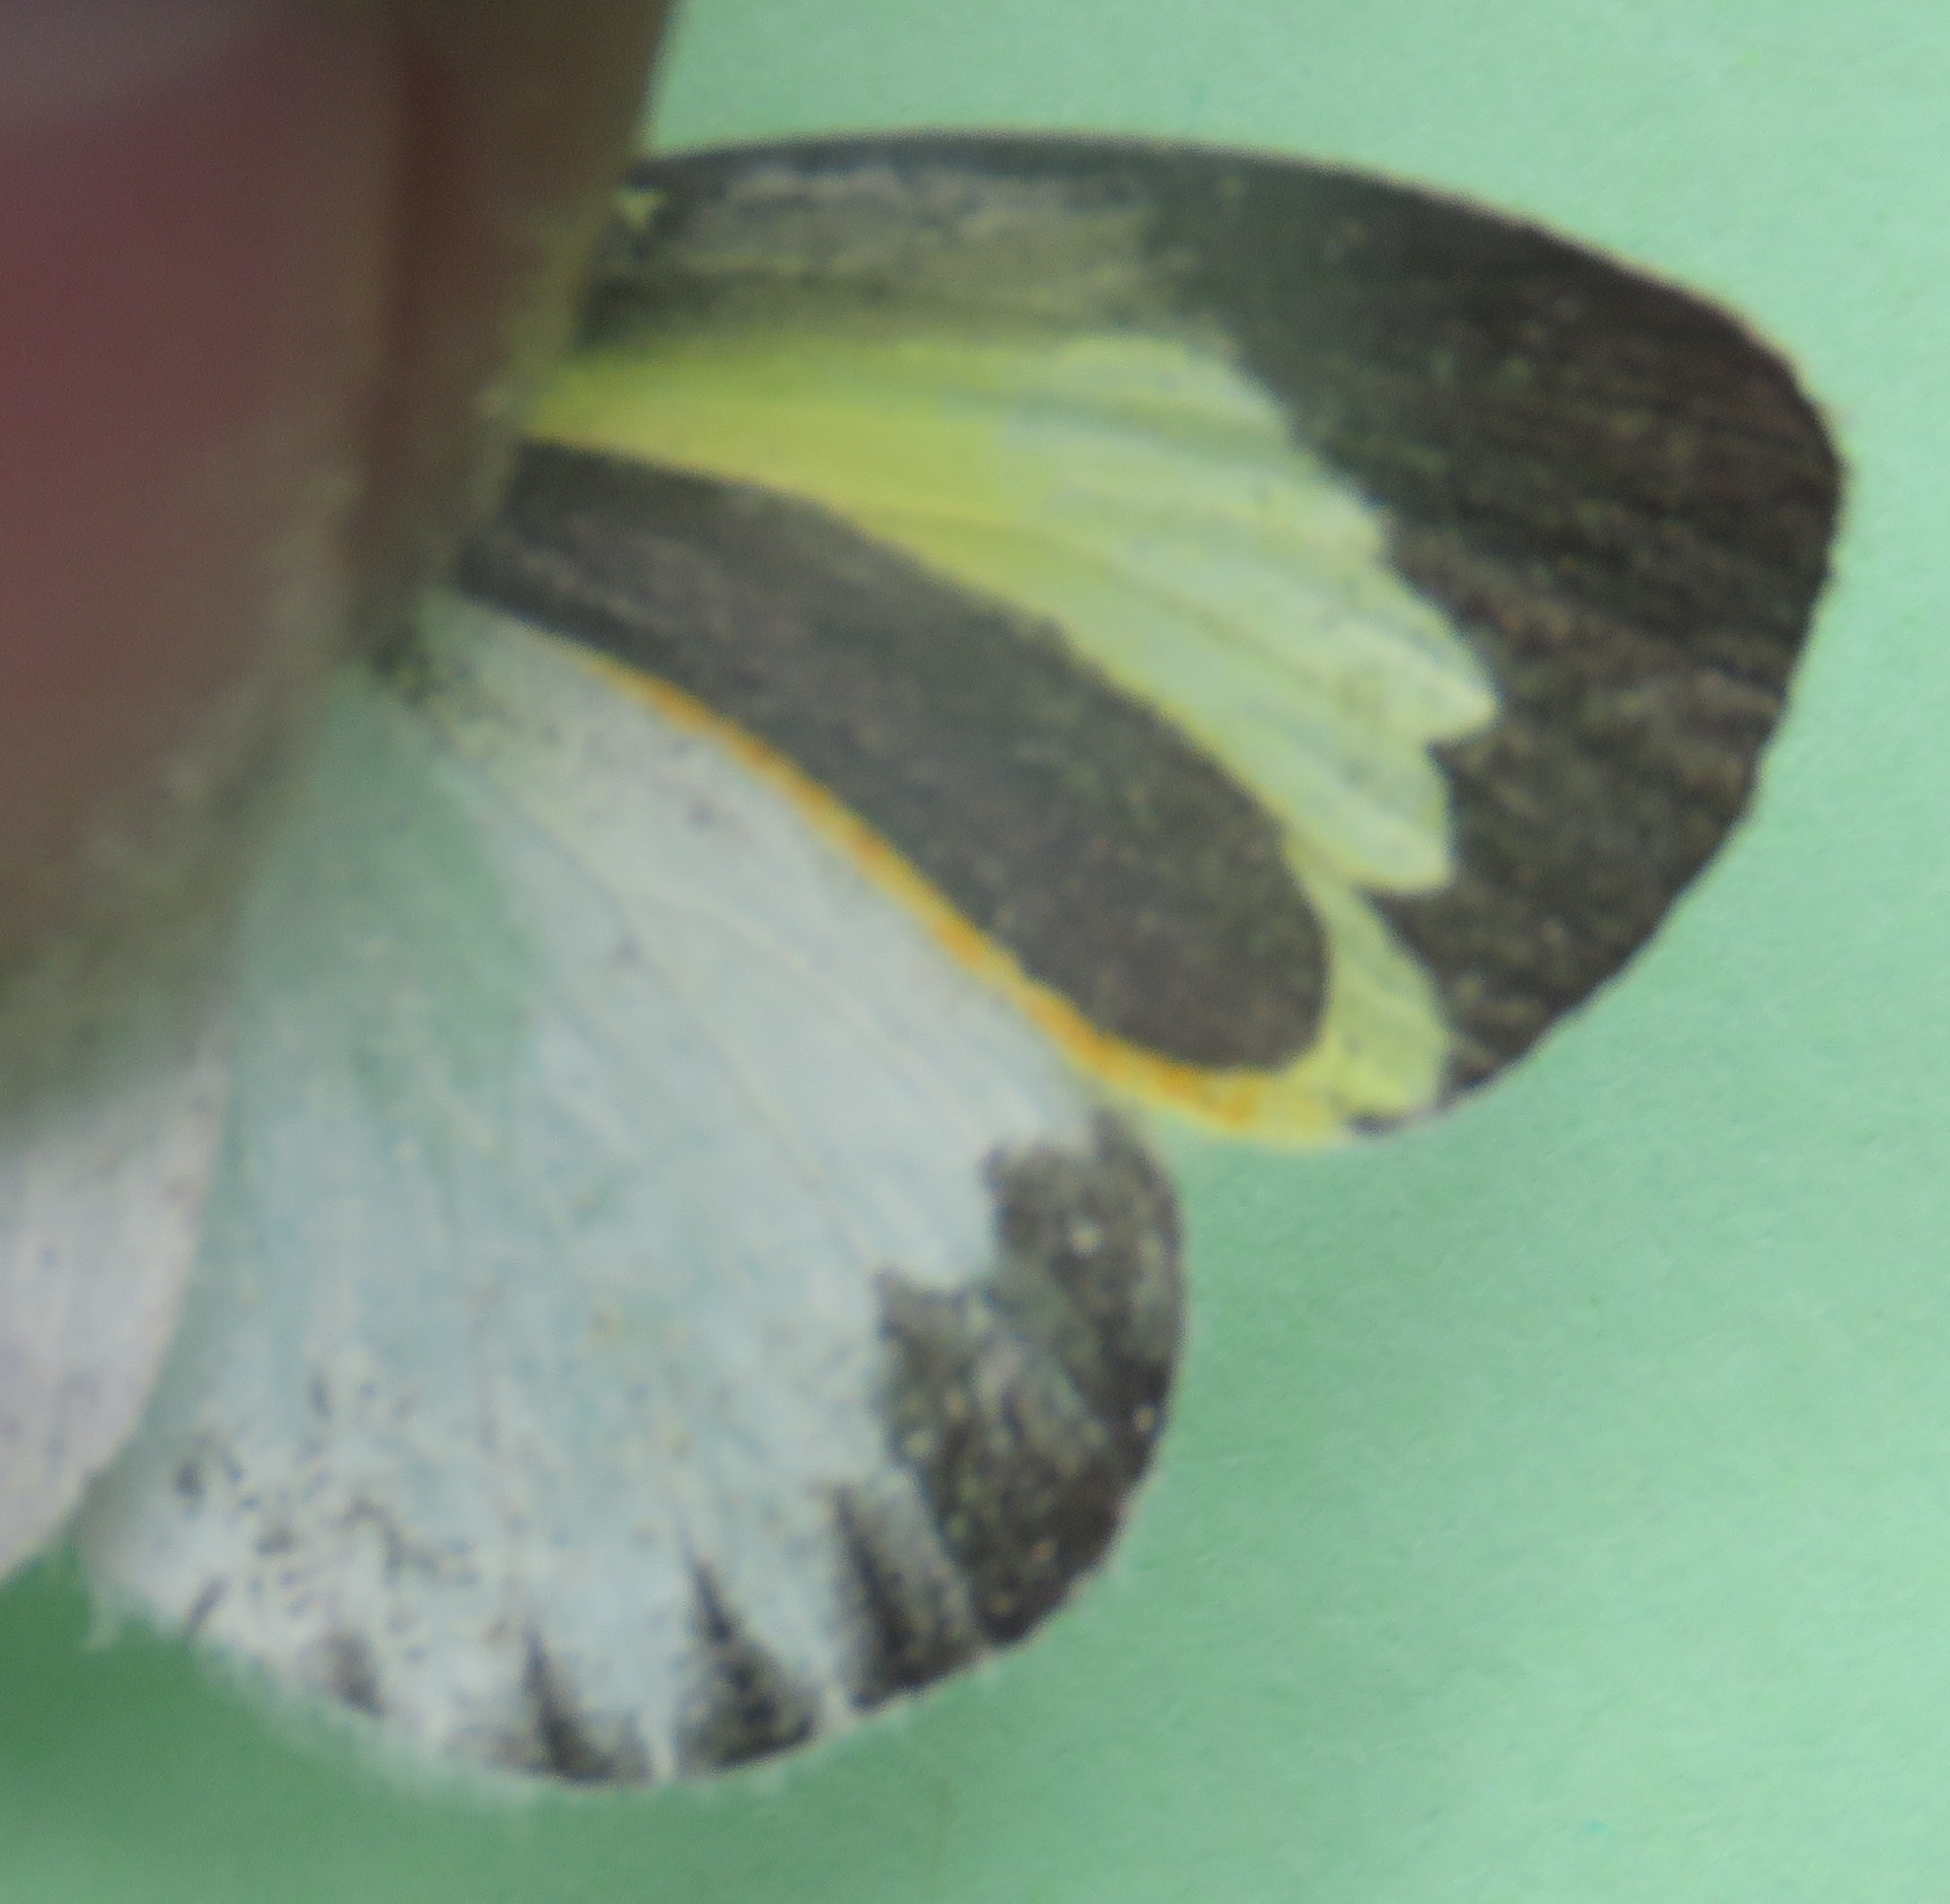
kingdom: Animalia
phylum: Arthropoda
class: Insecta
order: Lepidoptera
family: Pieridae
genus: Eurema
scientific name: Eurema daira
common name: Barred sulphur
